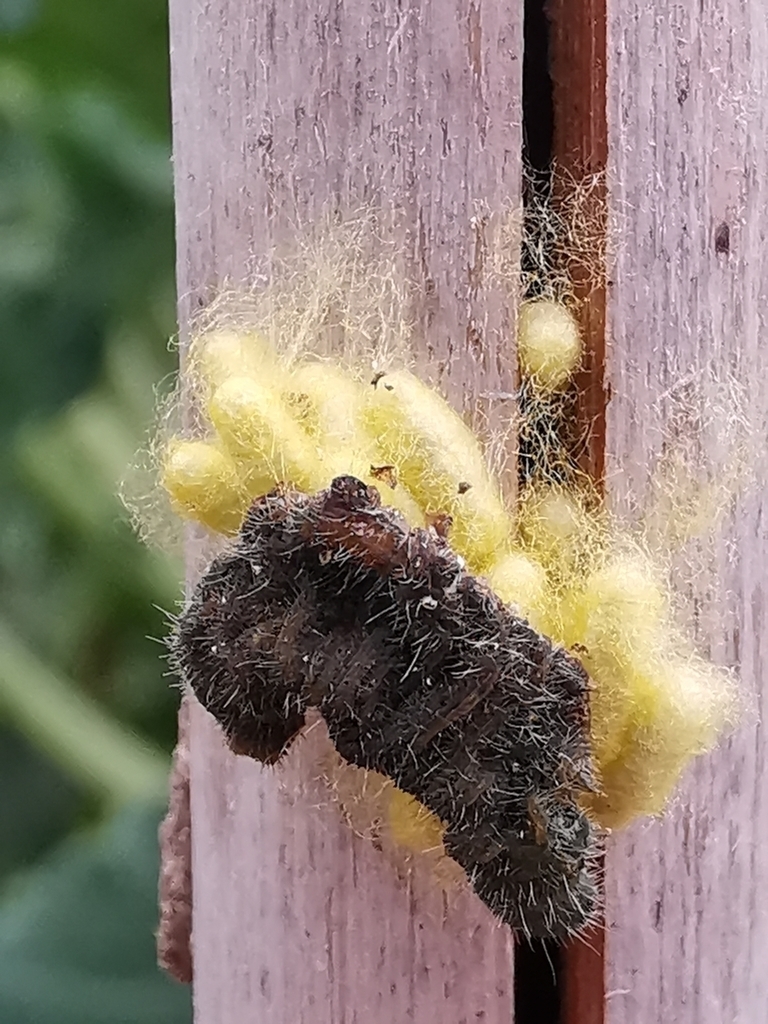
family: Polydnaviriformidae
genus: Bracoviriform
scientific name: Bracoviriform glomeratae
